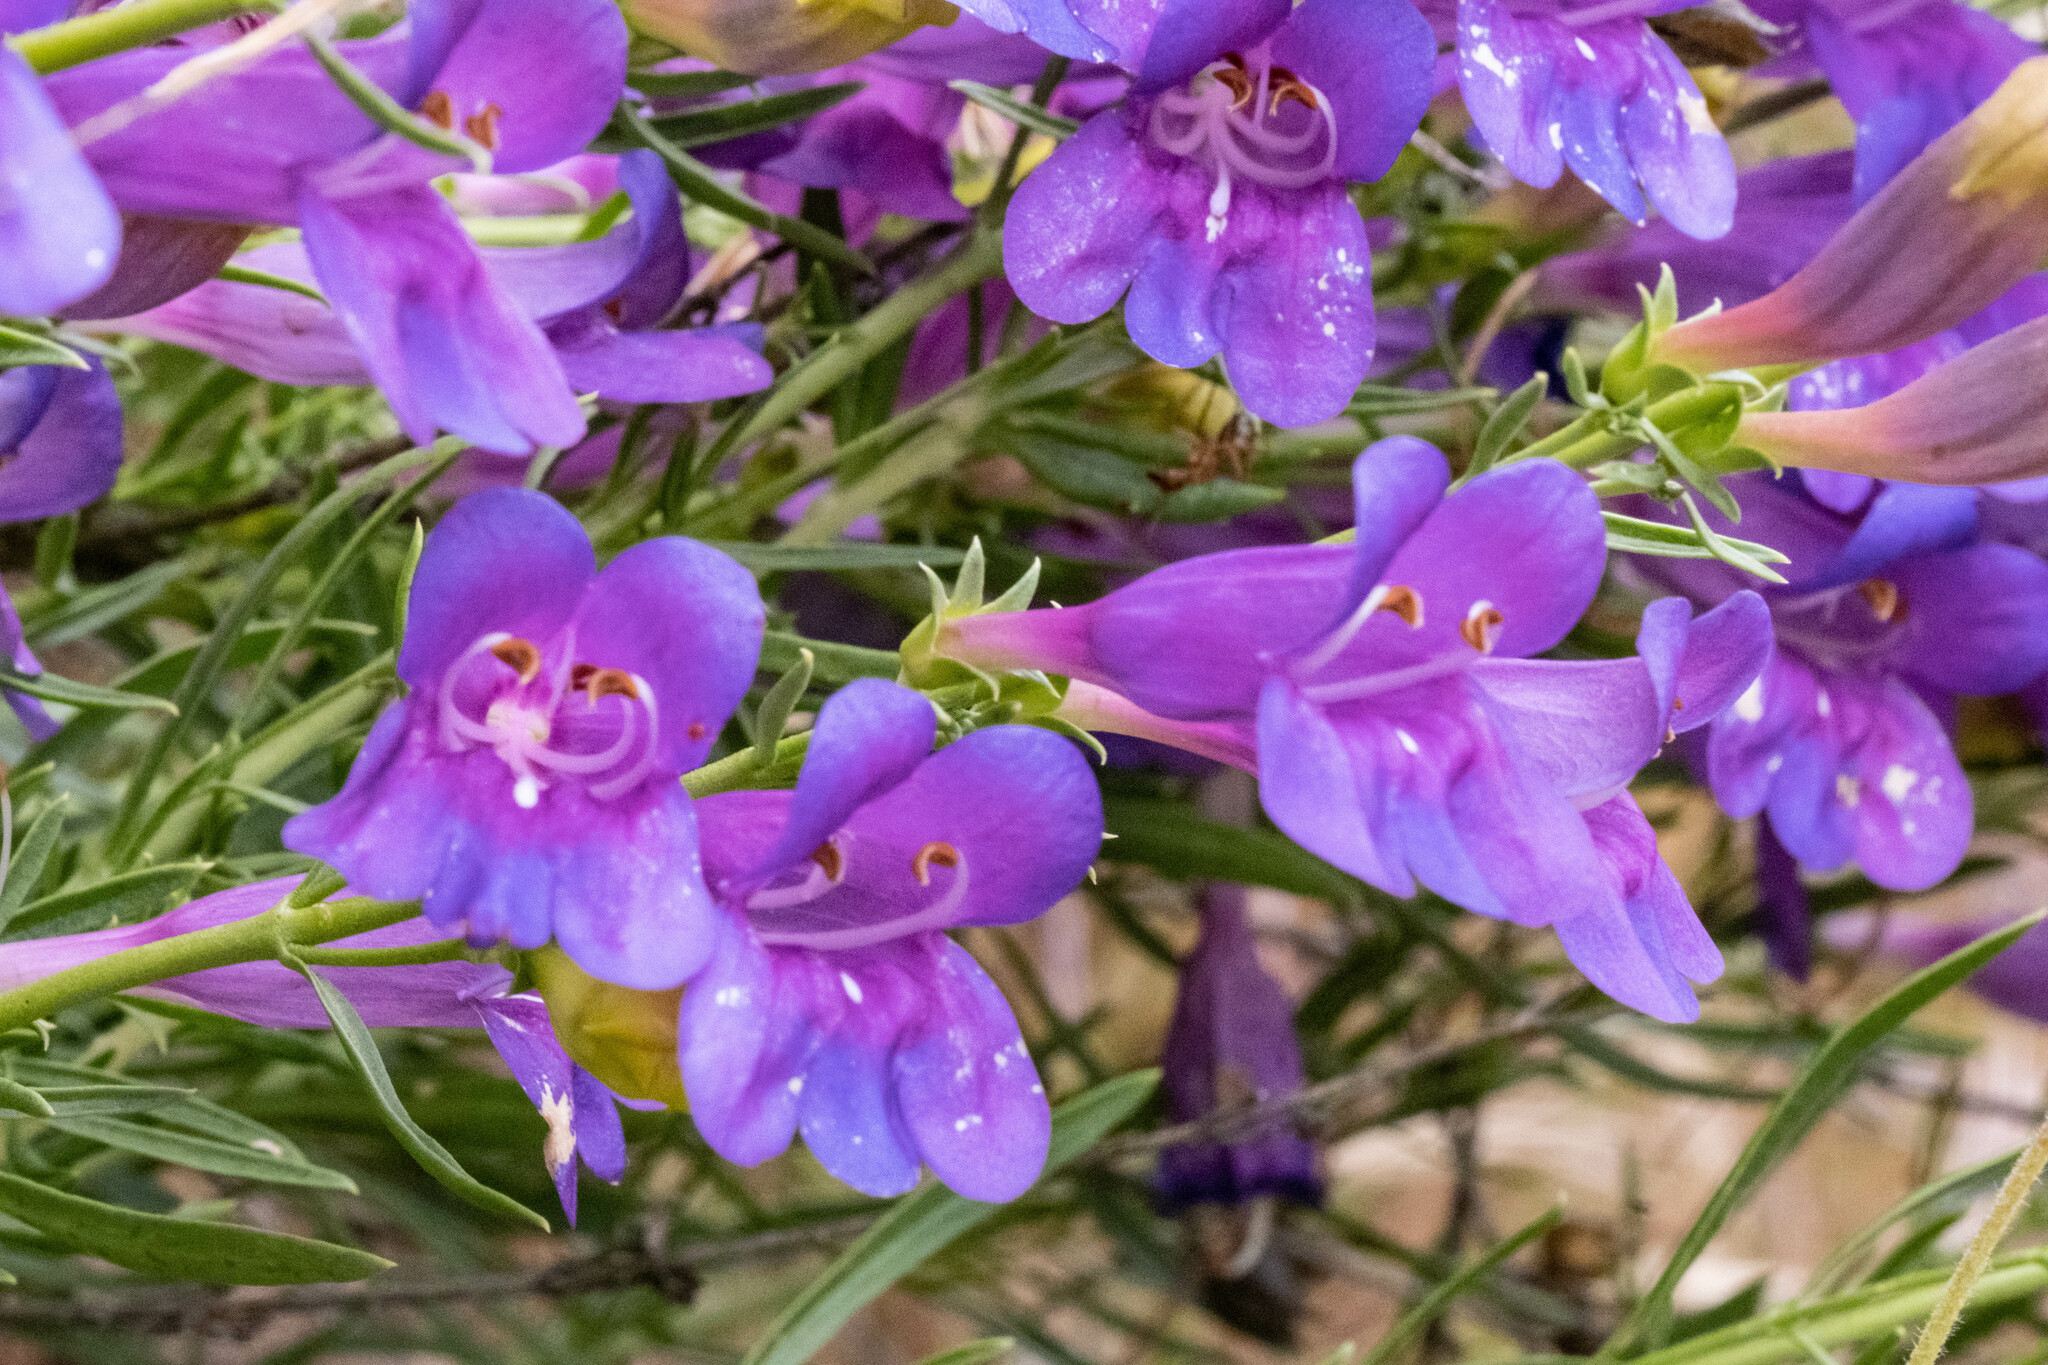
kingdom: Plantae
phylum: Tracheophyta
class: Magnoliopsida
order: Lamiales
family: Plantaginaceae
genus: Penstemon
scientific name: Penstemon heterophyllus
